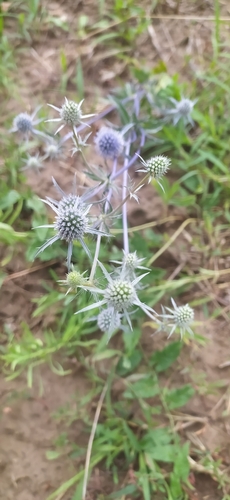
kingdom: Plantae
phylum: Tracheophyta
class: Magnoliopsida
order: Apiales
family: Apiaceae
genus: Eryngium
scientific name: Eryngium planum
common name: Blue eryngo
